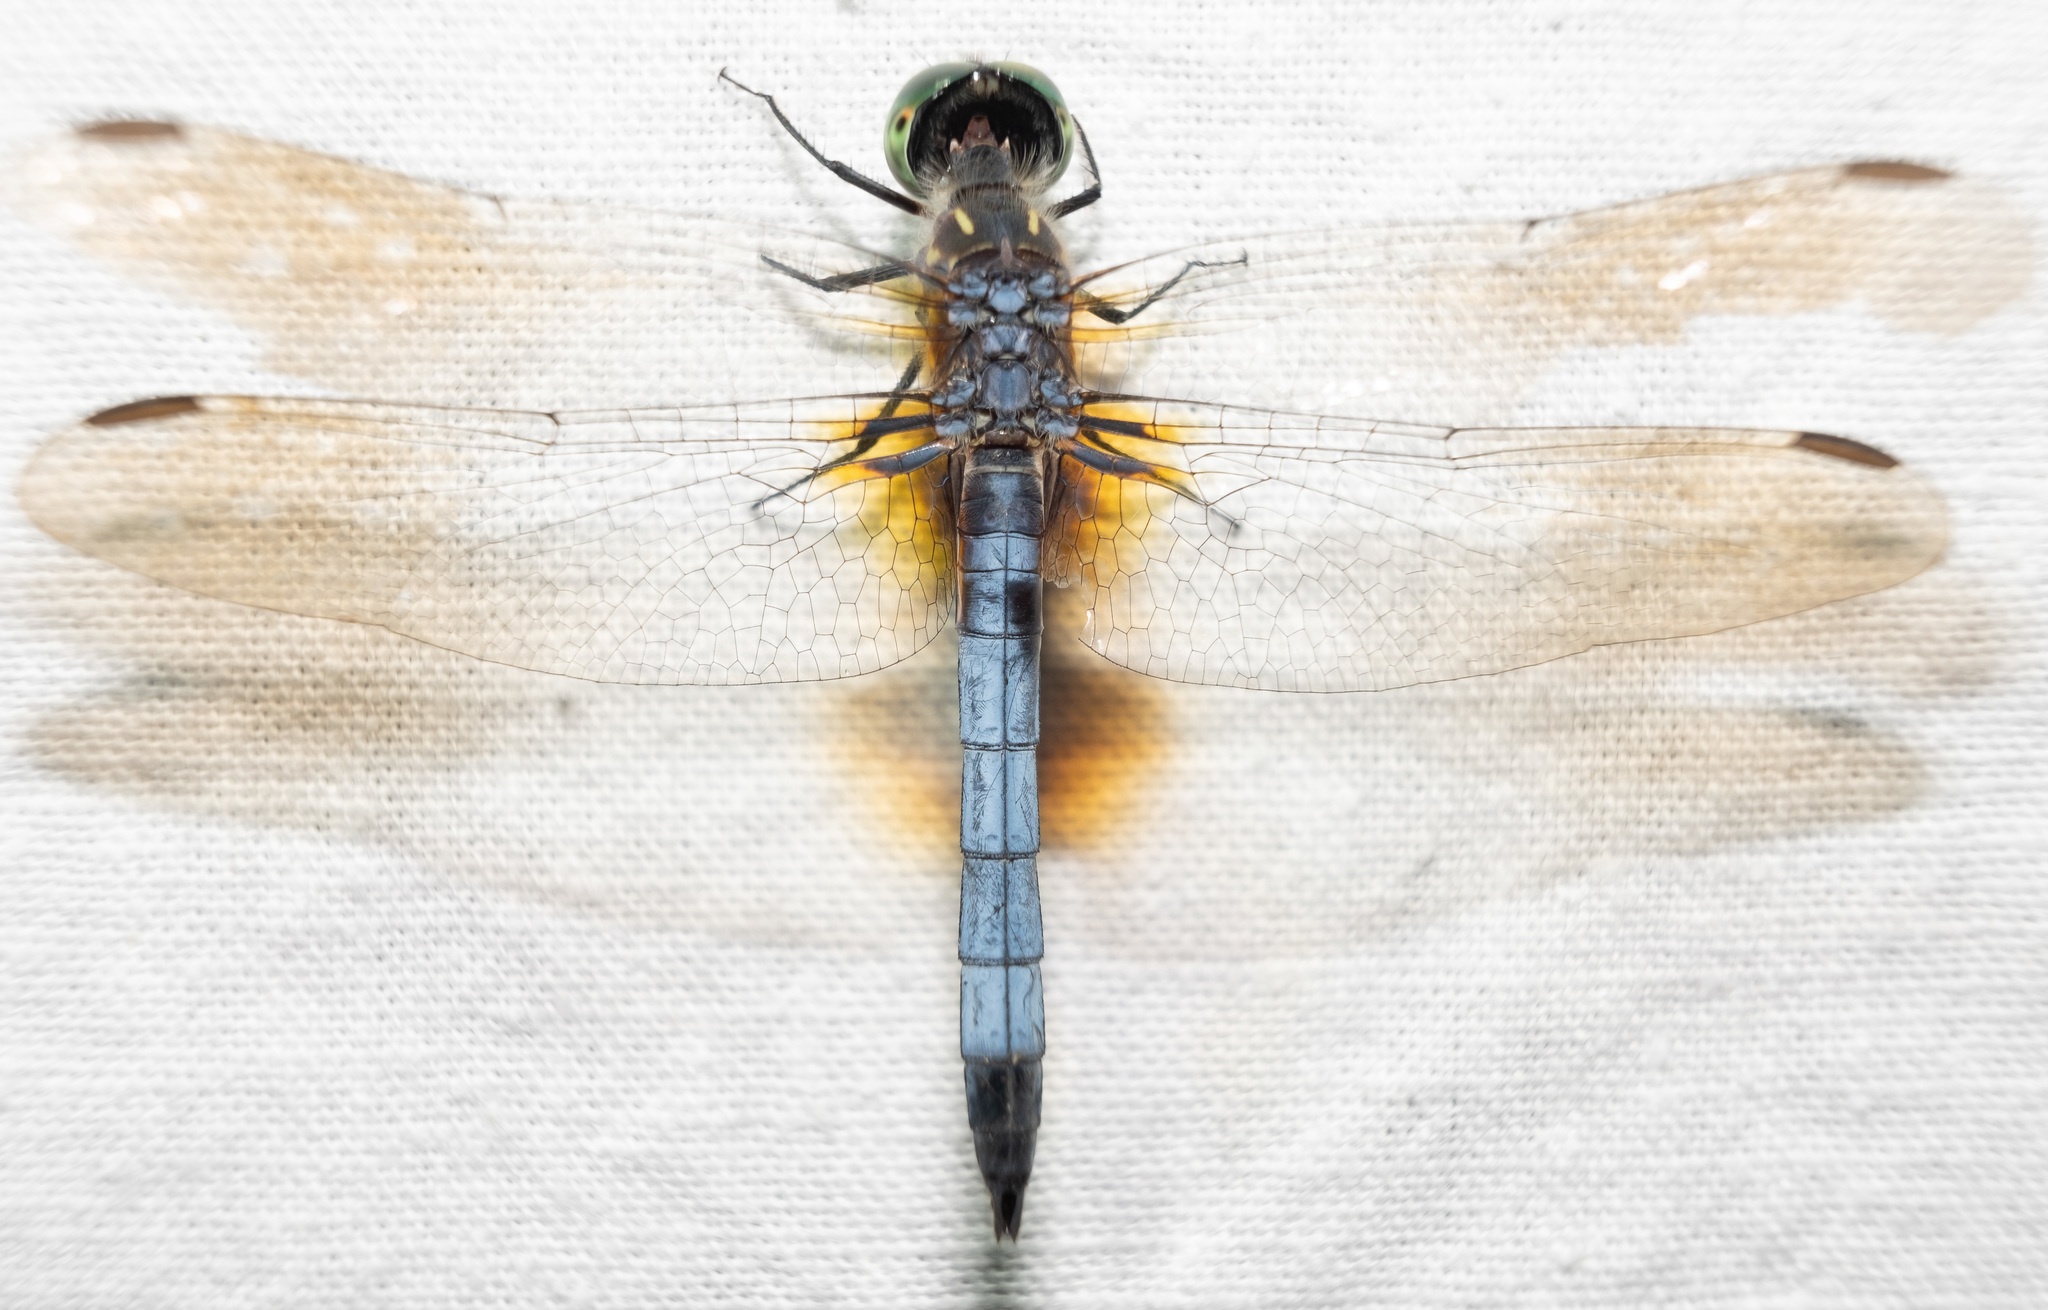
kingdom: Animalia
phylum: Arthropoda
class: Insecta
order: Odonata
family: Libellulidae
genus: Pachydiplax
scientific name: Pachydiplax longipennis
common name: Blue dasher
